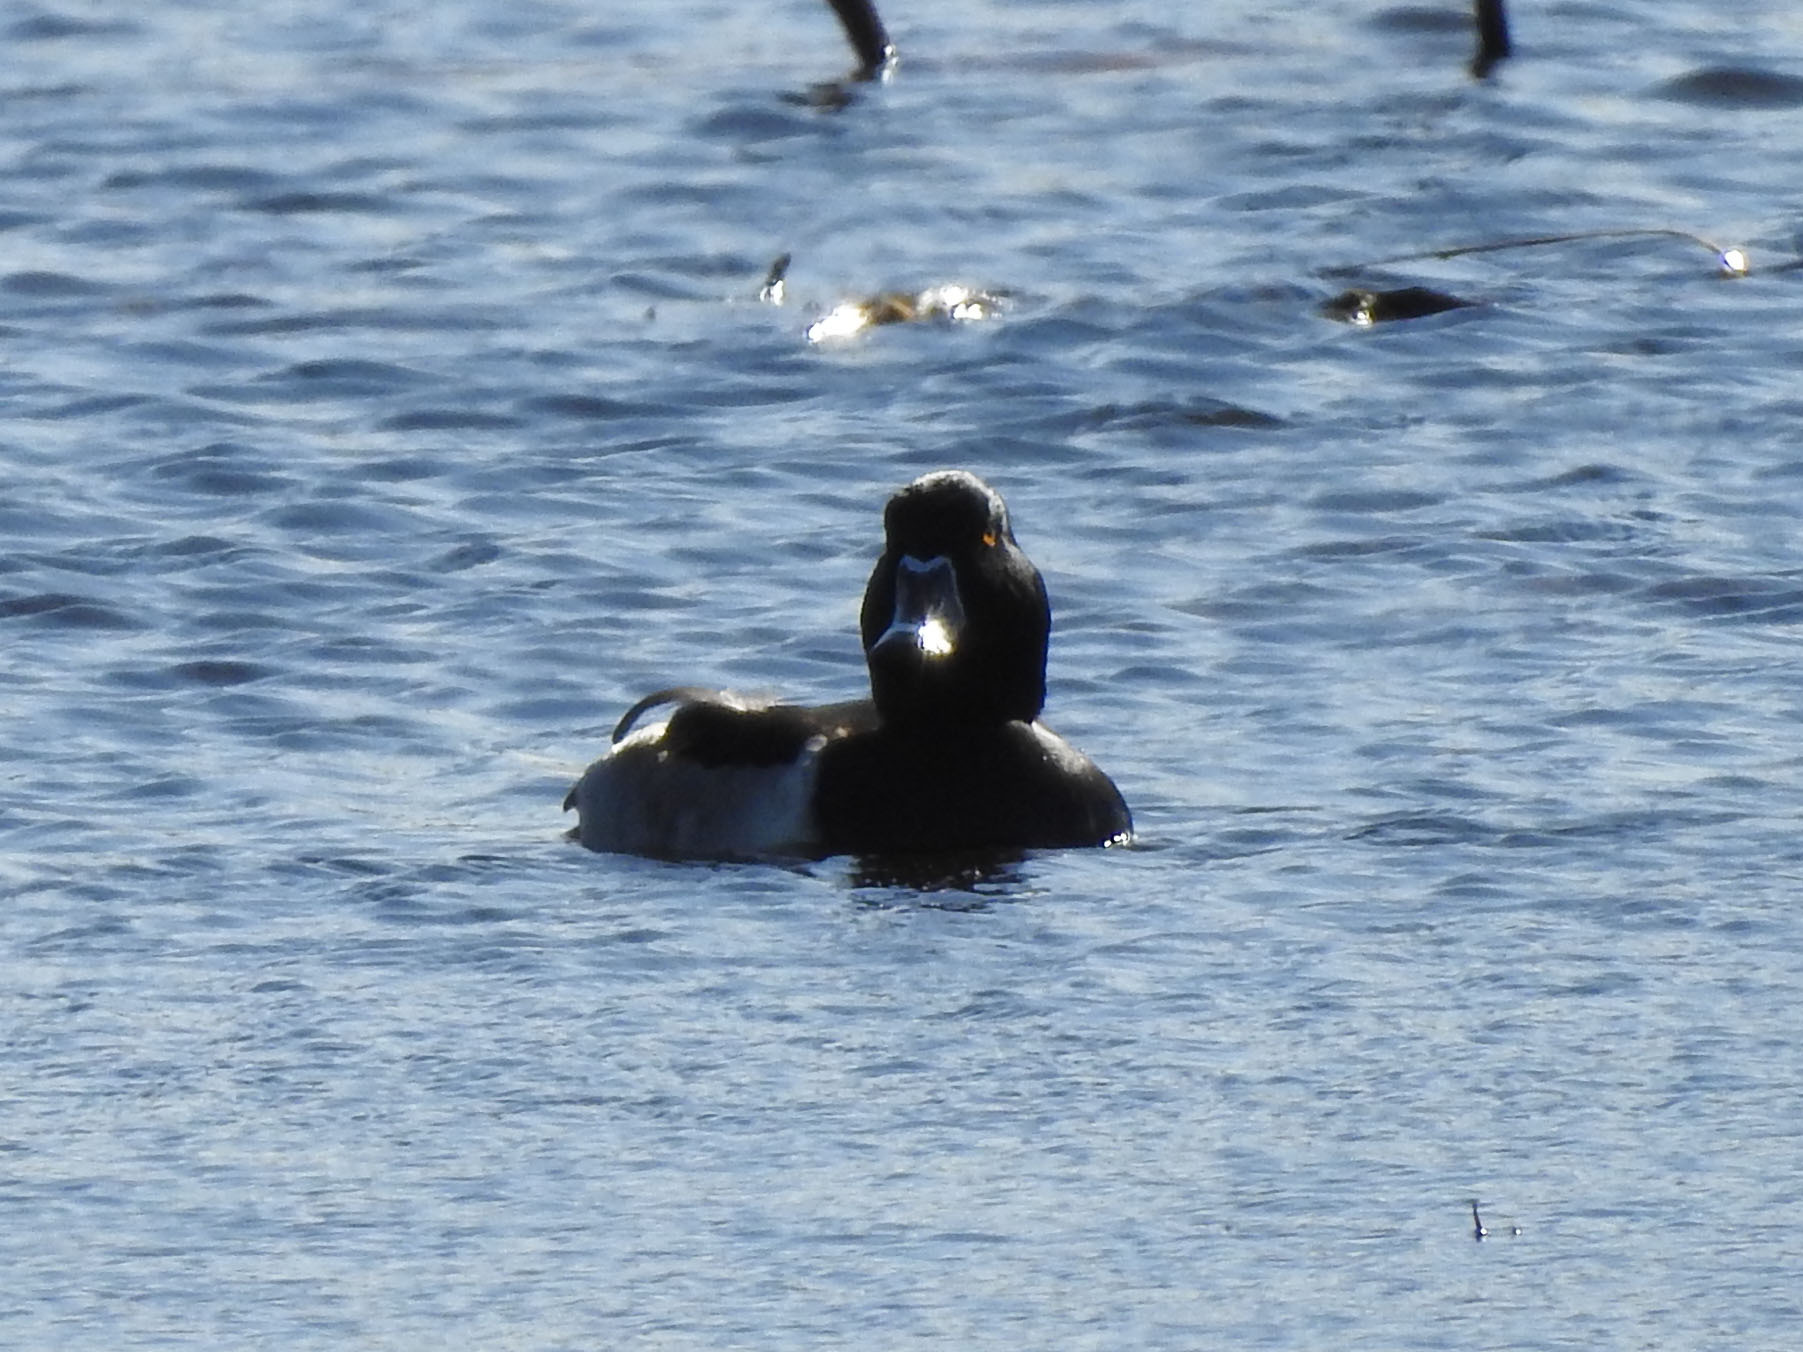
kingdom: Animalia
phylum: Chordata
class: Aves
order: Anseriformes
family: Anatidae
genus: Aythya
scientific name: Aythya collaris
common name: Ring-necked duck
